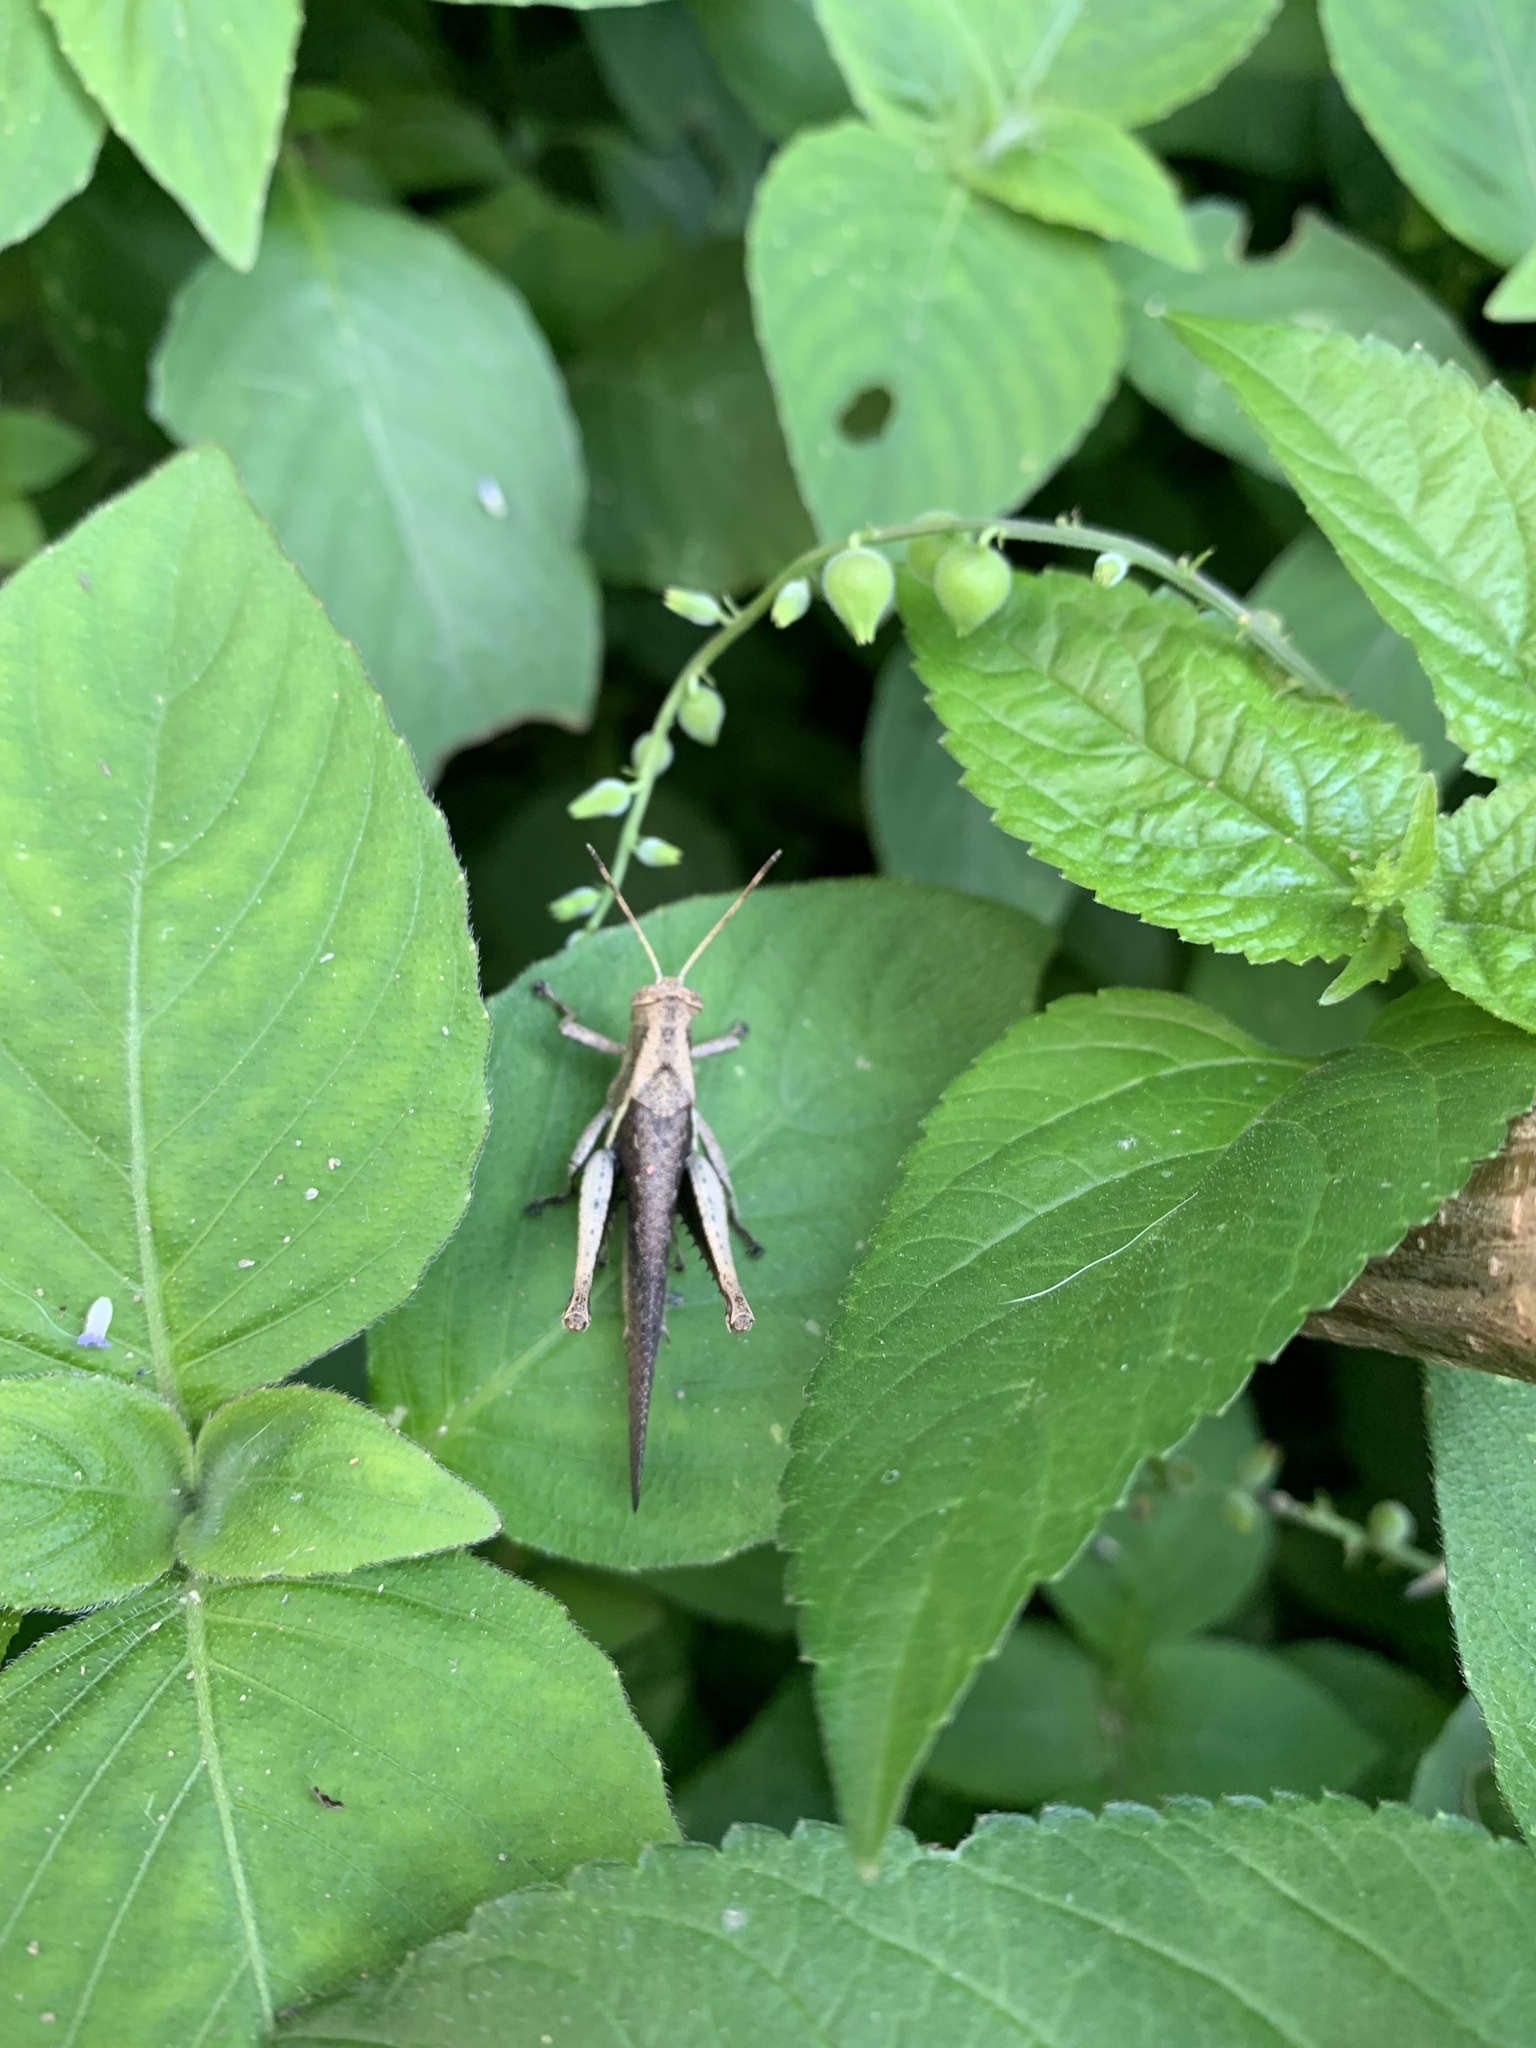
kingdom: Animalia
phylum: Arthropoda
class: Insecta
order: Orthoptera
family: Acrididae
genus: Abracris
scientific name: Abracris flavolineata
